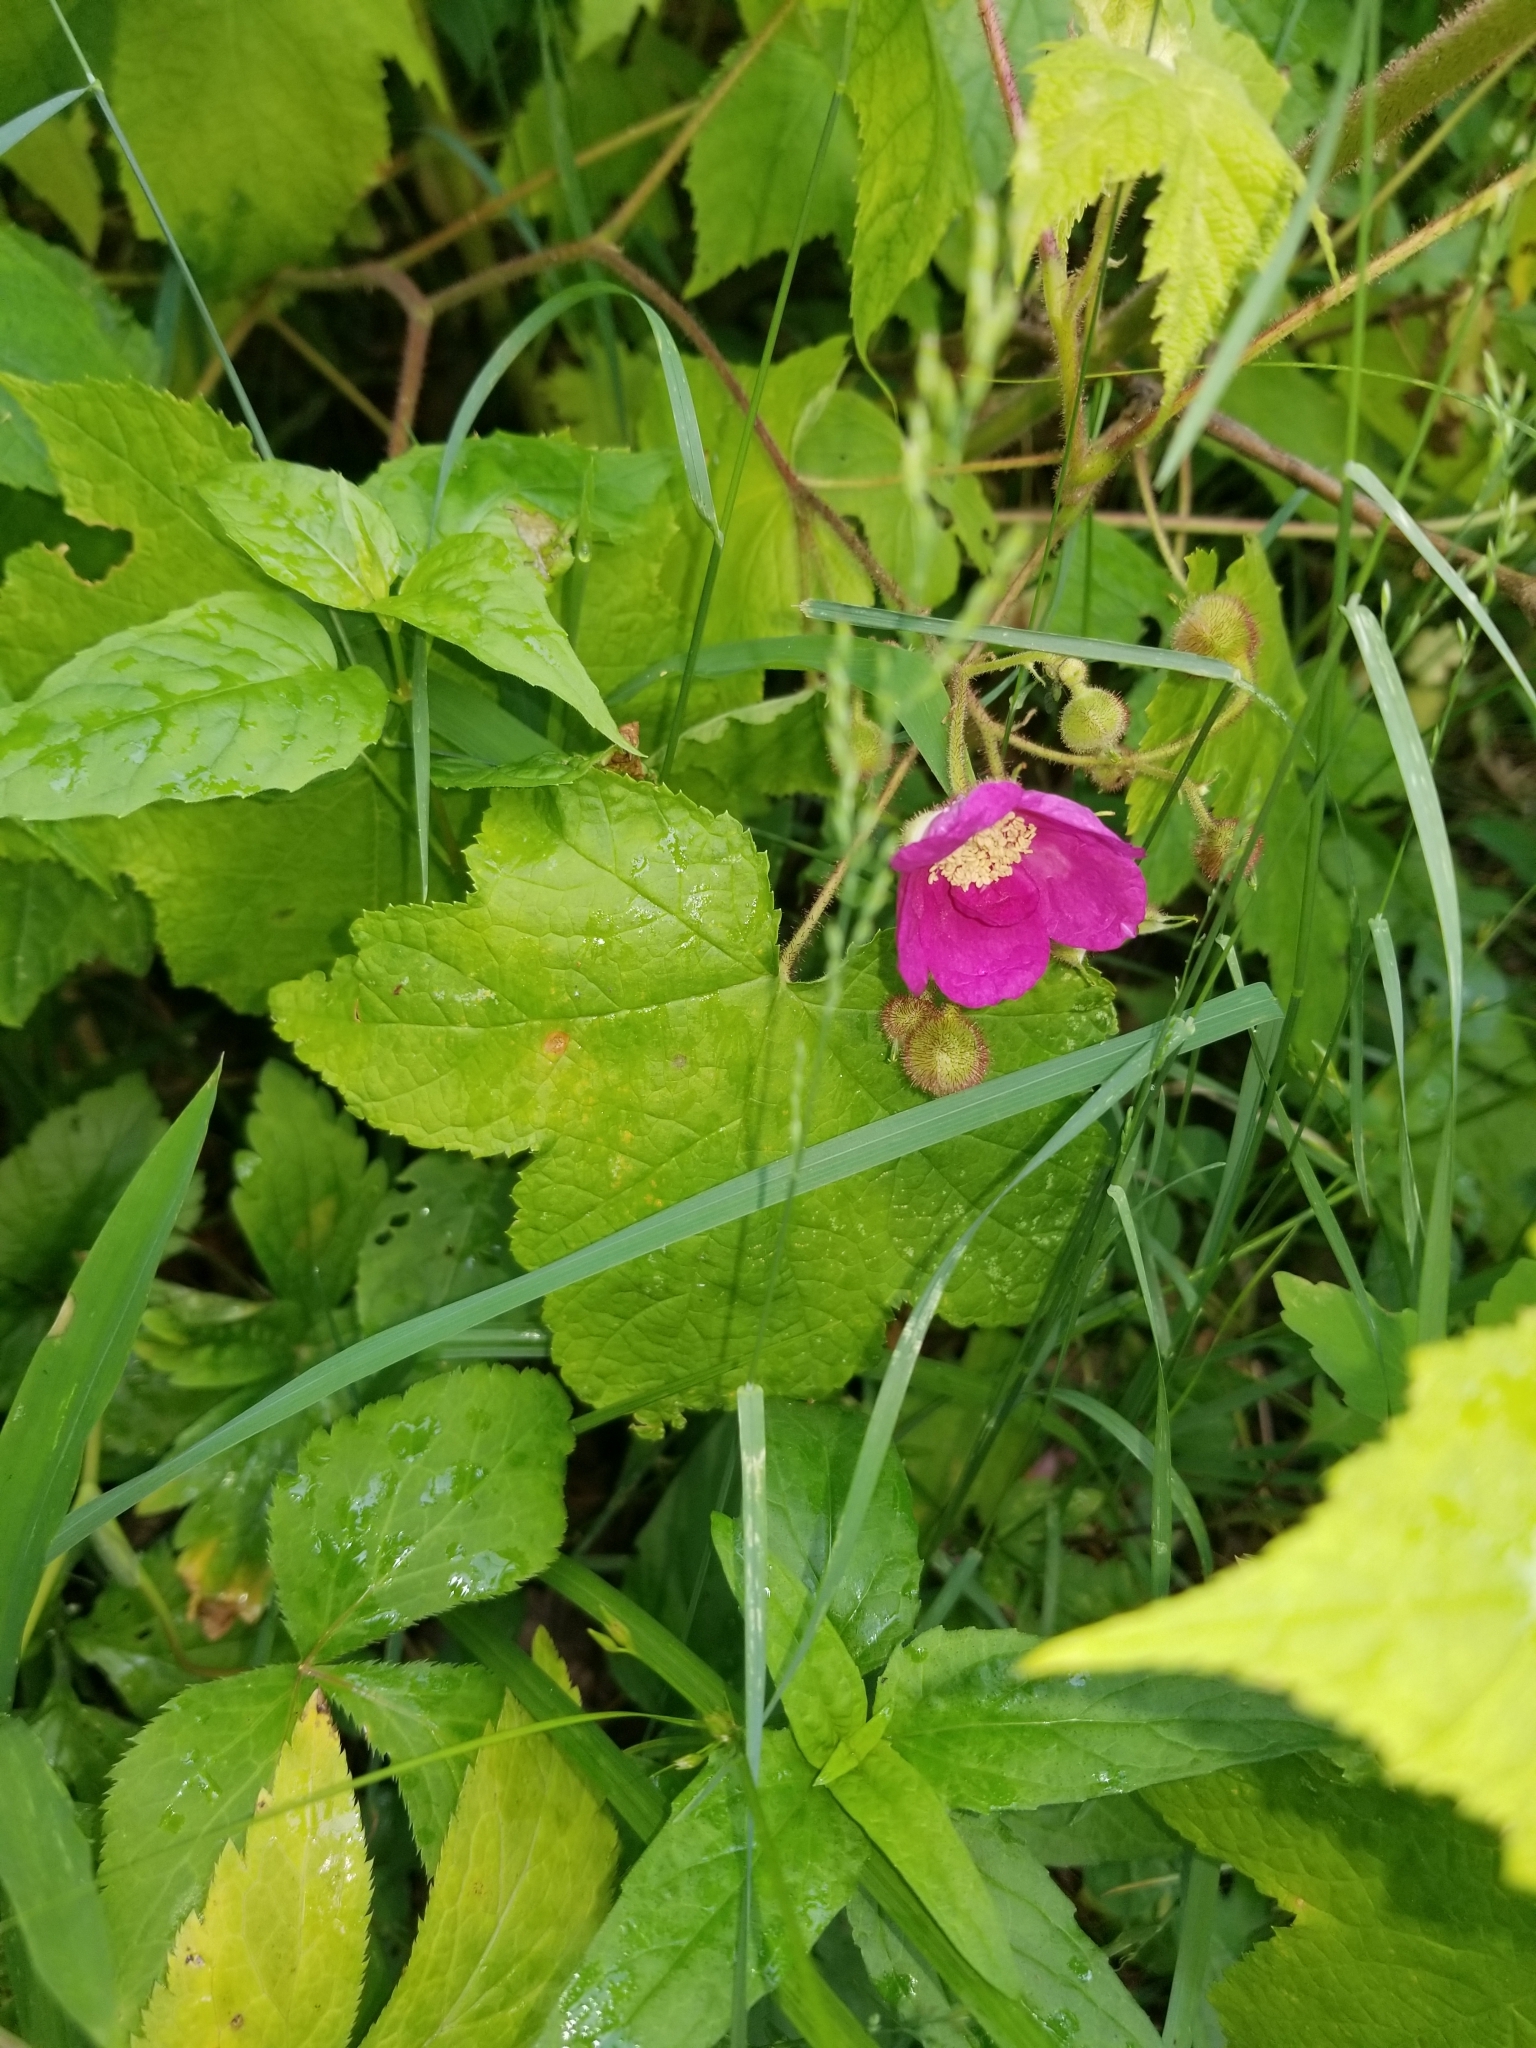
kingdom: Plantae
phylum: Tracheophyta
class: Magnoliopsida
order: Rosales
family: Rosaceae
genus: Rubus
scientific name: Rubus odoratus
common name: Purple-flowered raspberry
